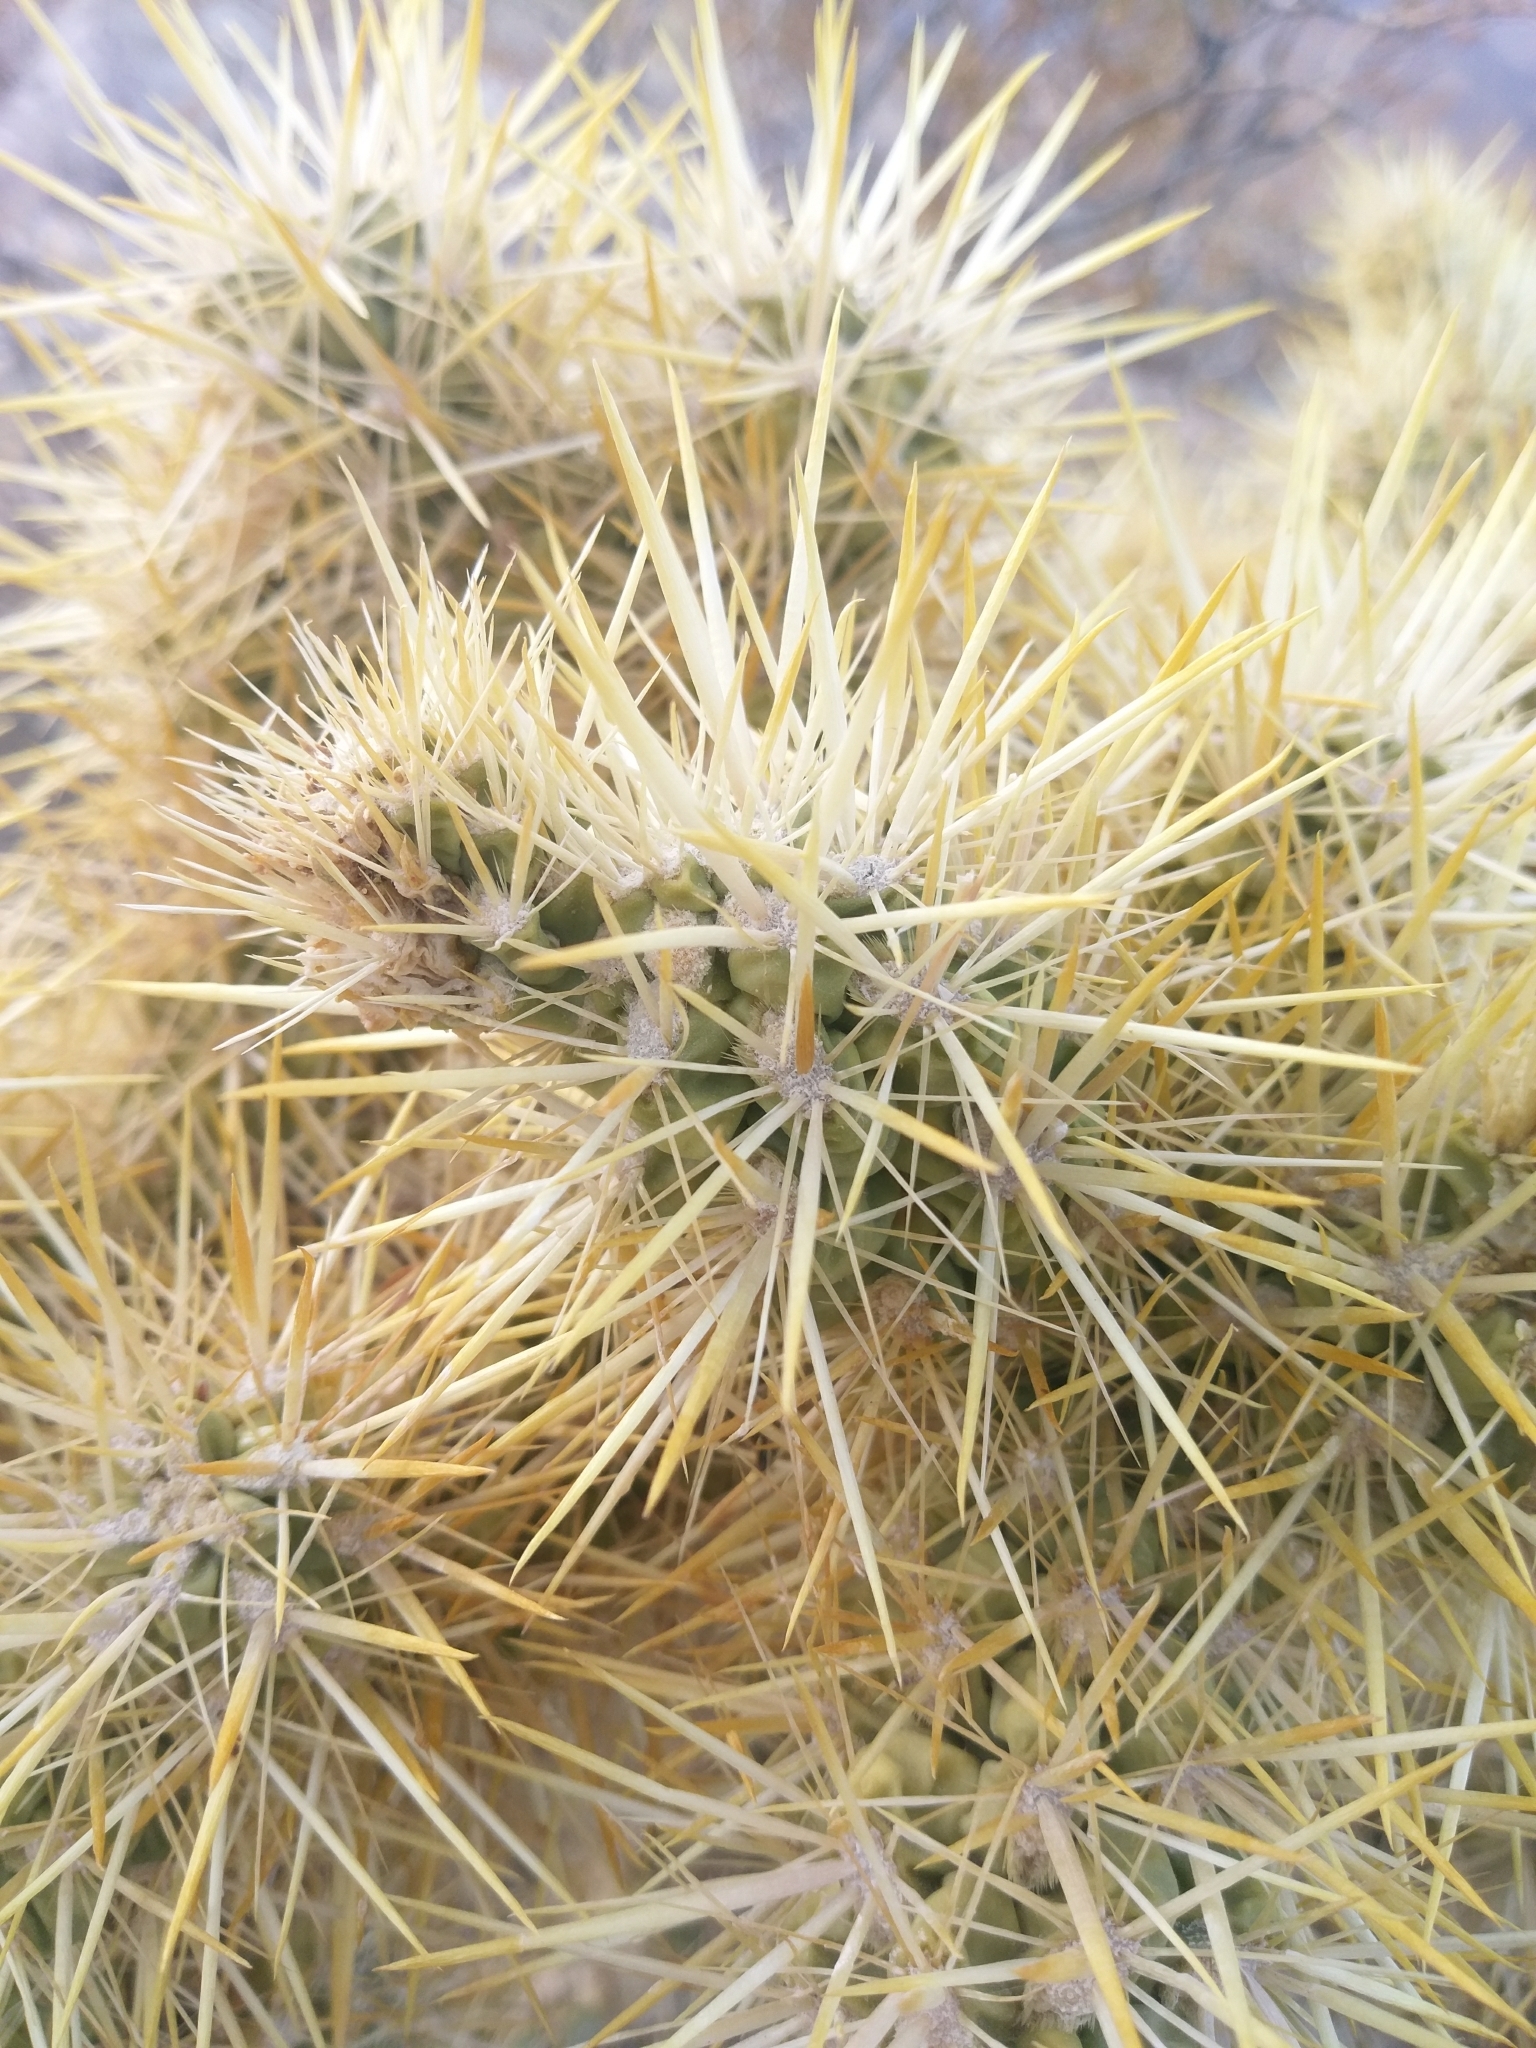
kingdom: Plantae
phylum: Tracheophyta
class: Magnoliopsida
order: Caryophyllales
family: Cactaceae
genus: Cylindropuntia
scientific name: Cylindropuntia echinocarpa
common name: Ground cholla
